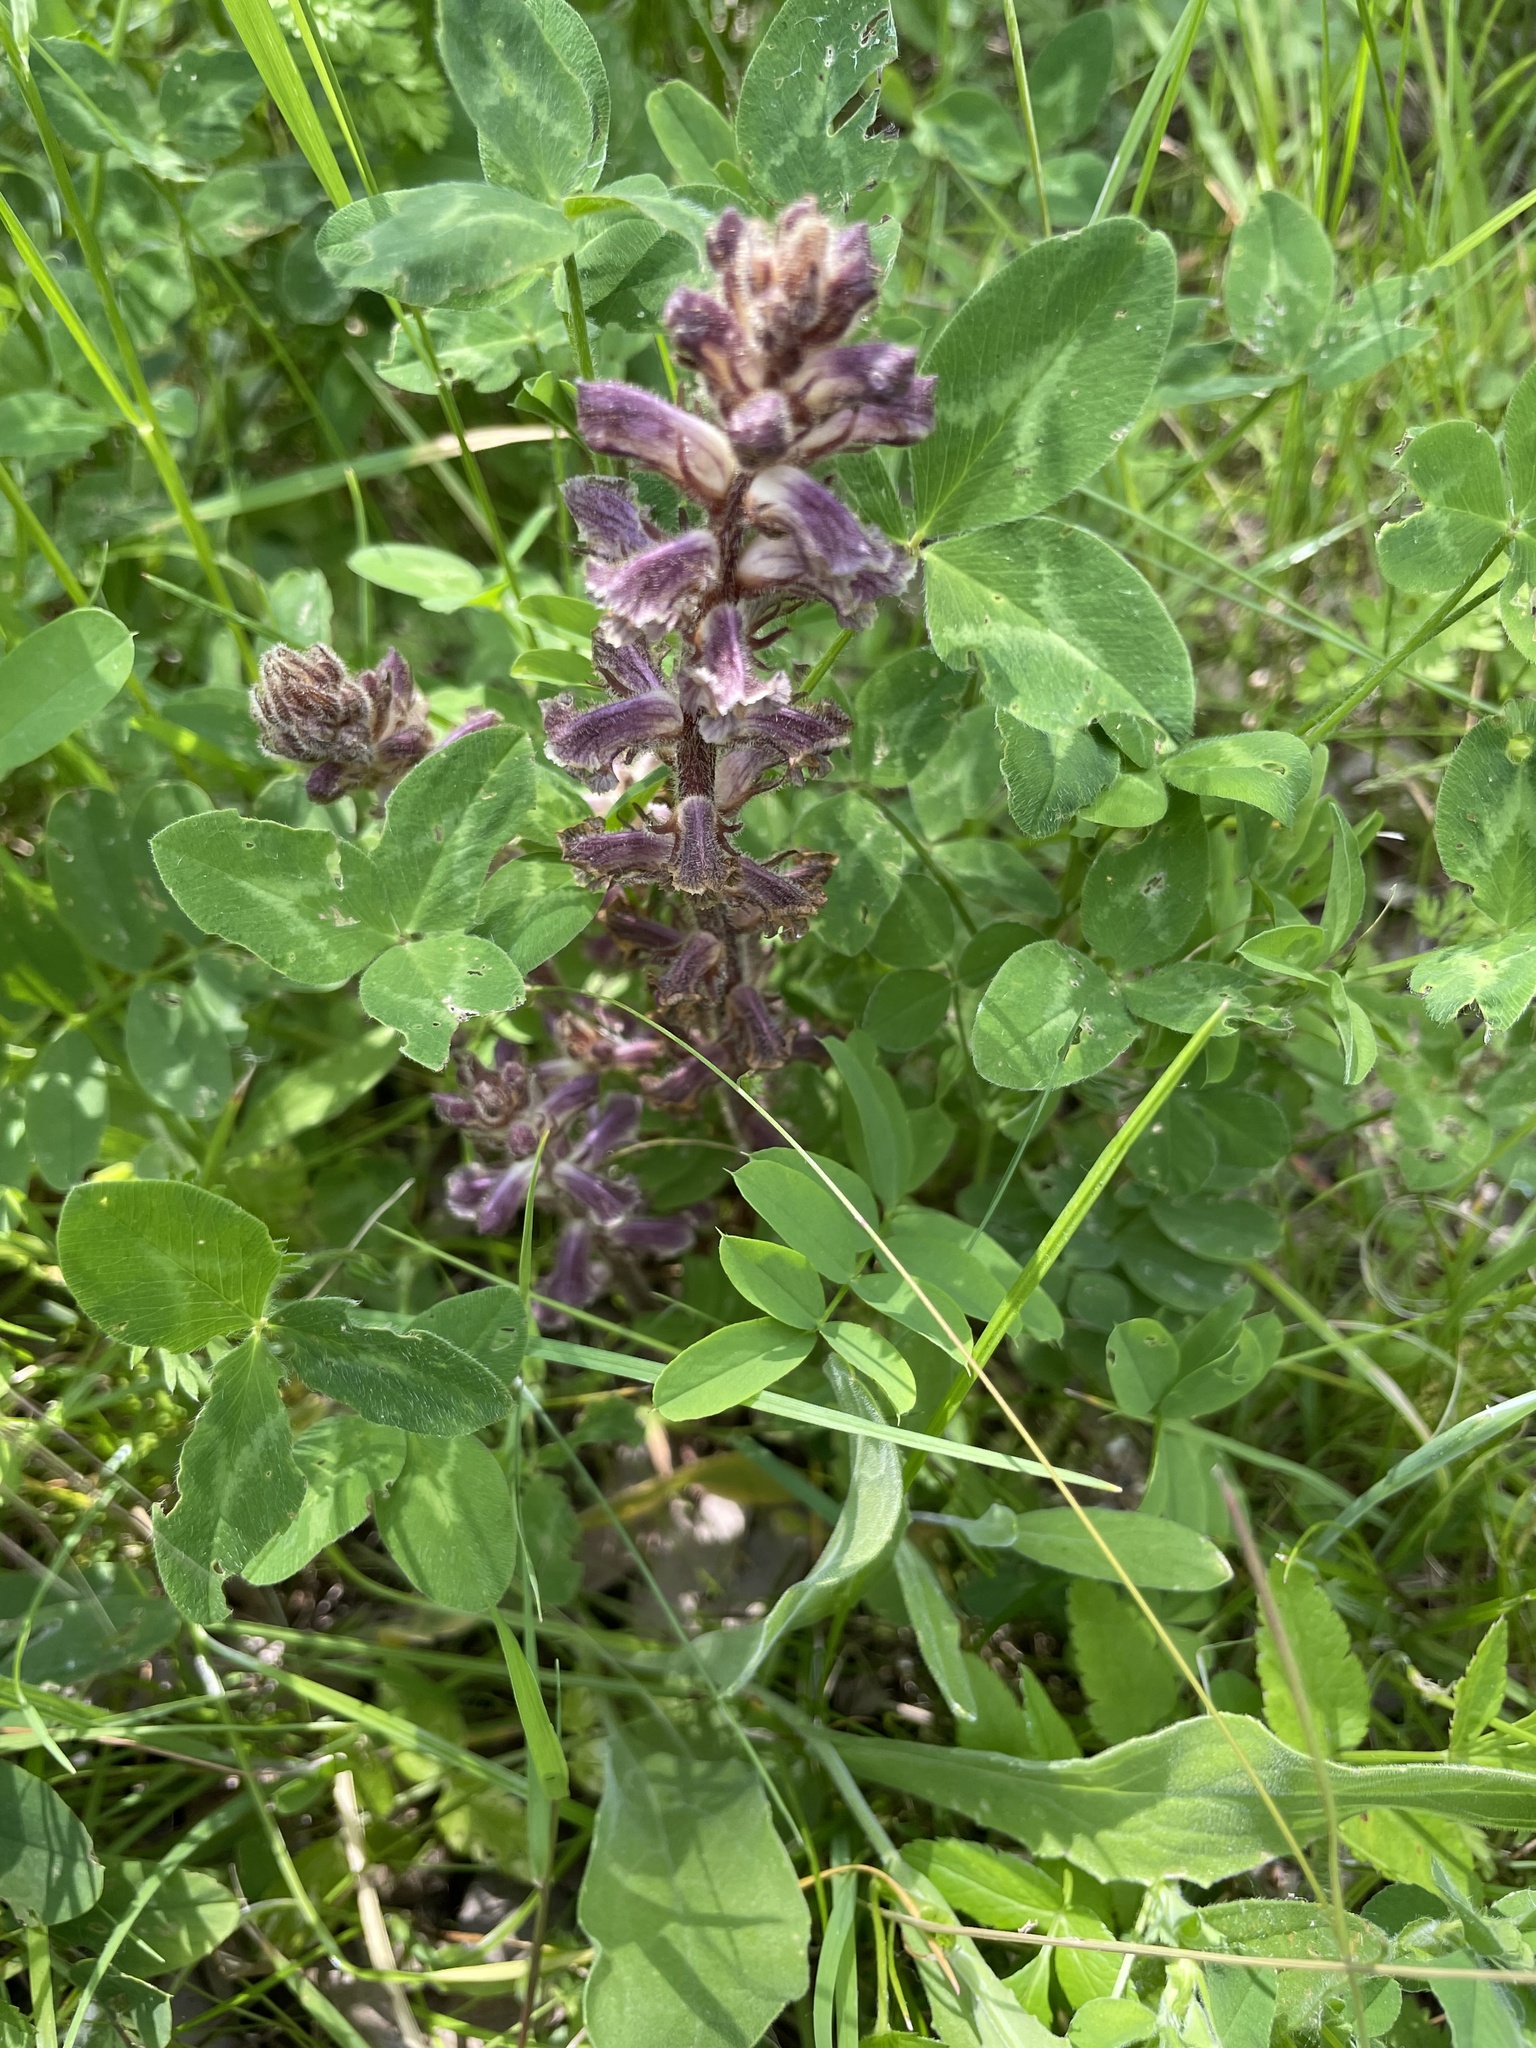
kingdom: Plantae
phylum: Tracheophyta
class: Magnoliopsida
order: Lamiales
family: Orobanchaceae
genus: Orobanche
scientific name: Orobanche minor
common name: Common broomrape
